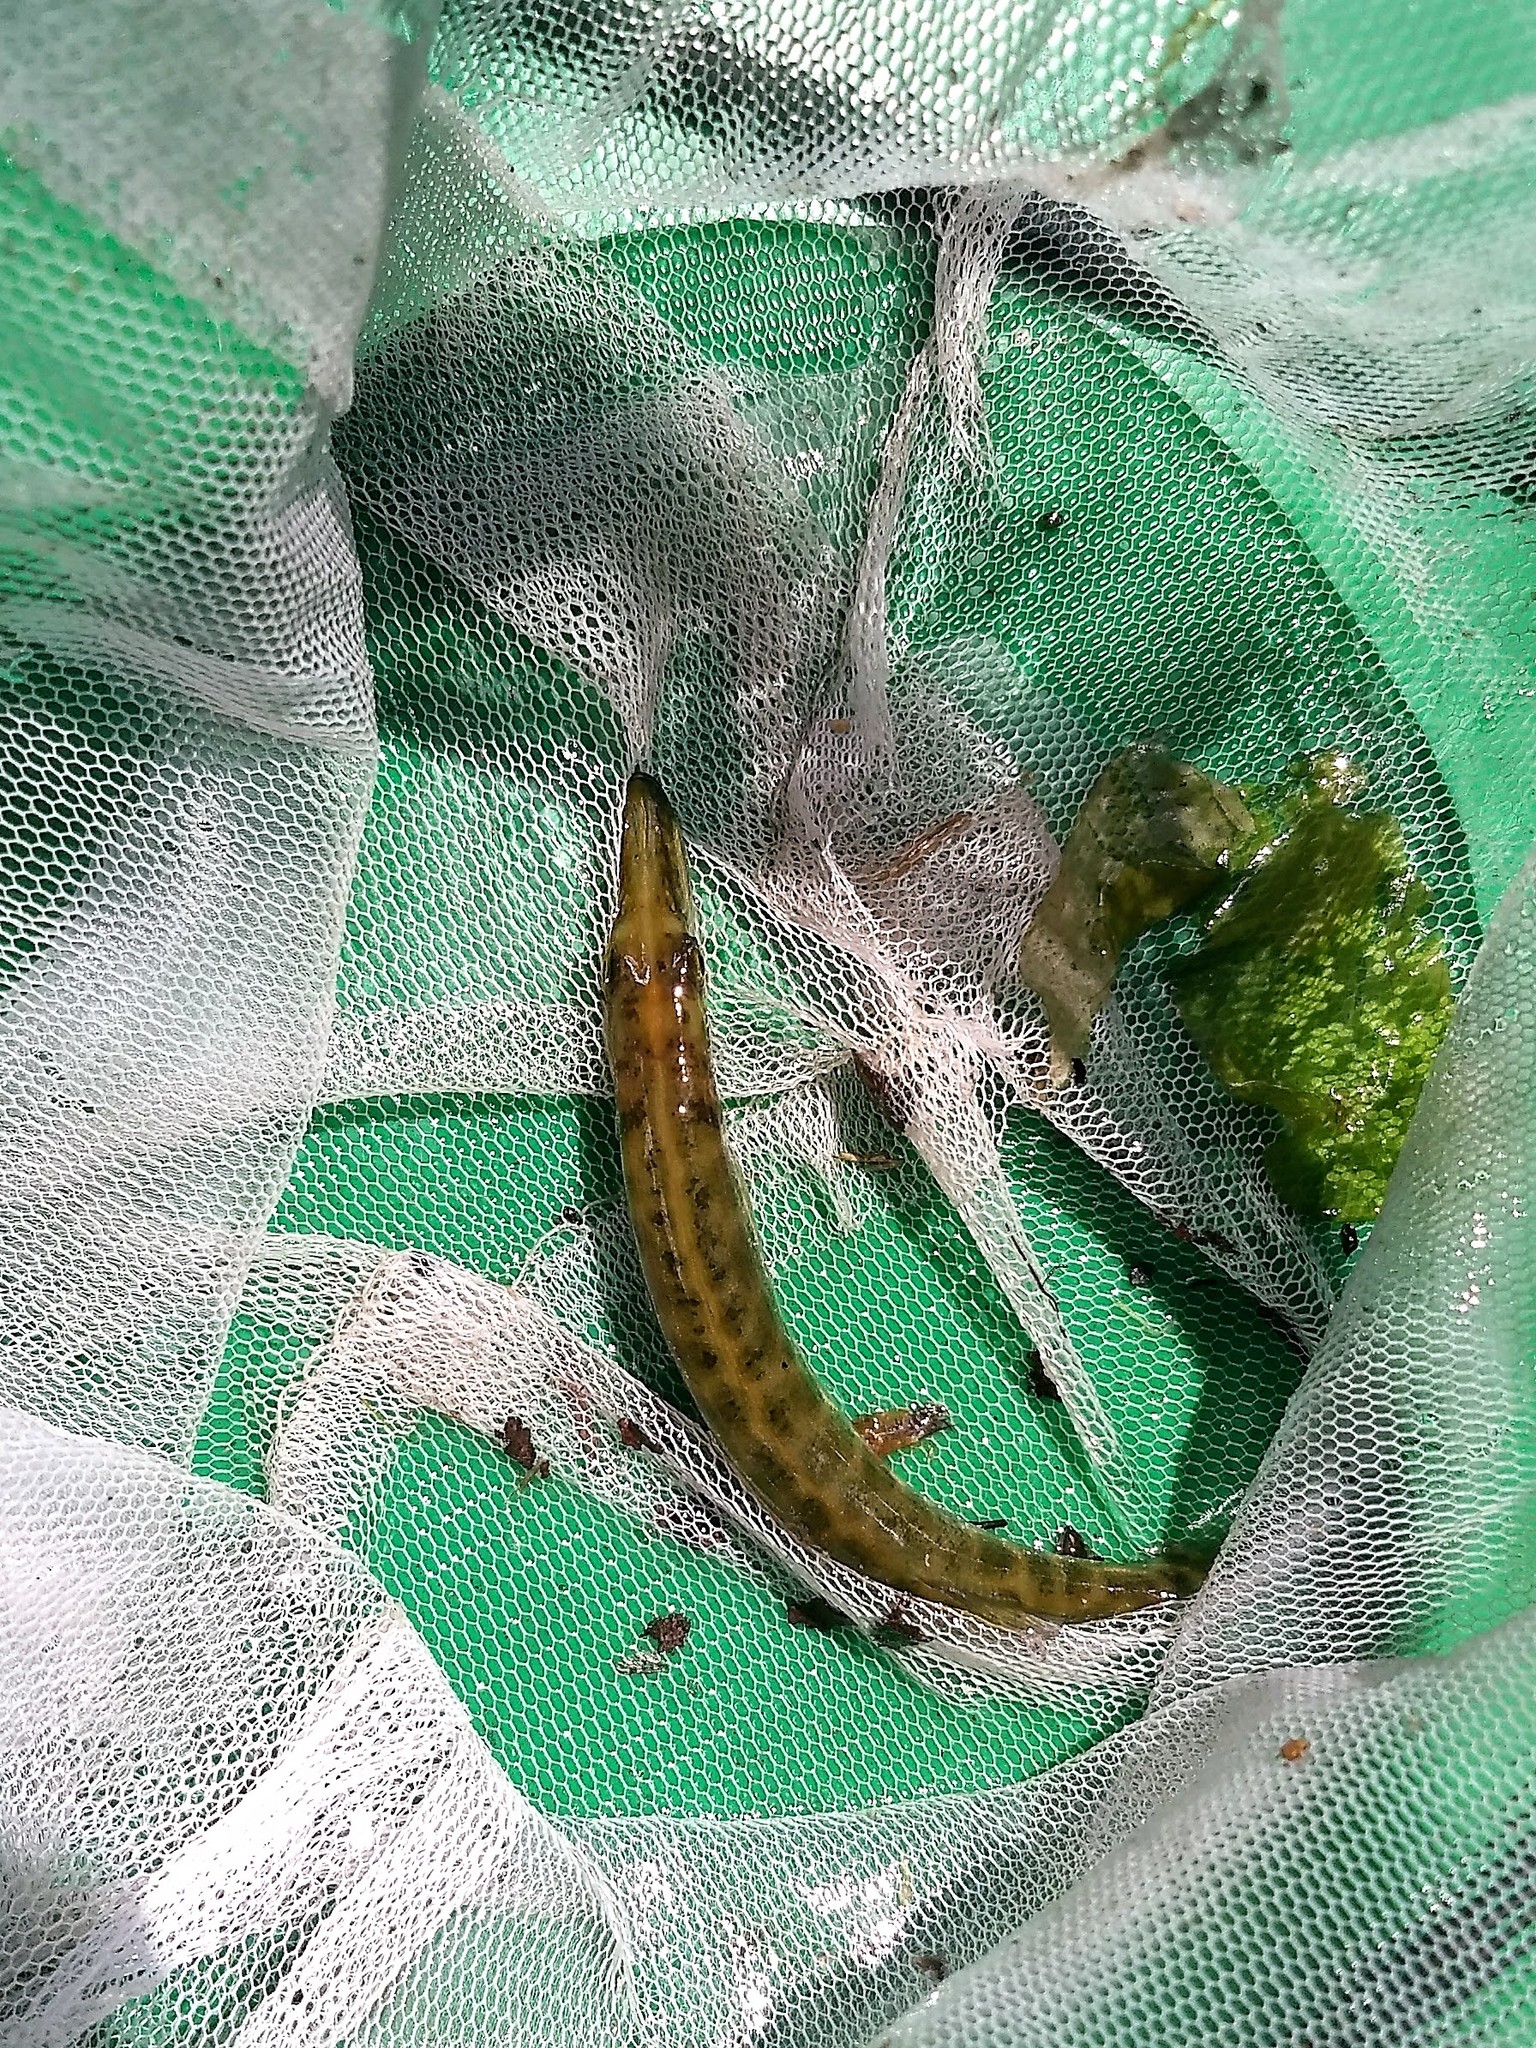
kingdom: Animalia
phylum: Chordata
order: Esociformes
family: Esocidae
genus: Esox
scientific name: Esox niger
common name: Chain pickerel
